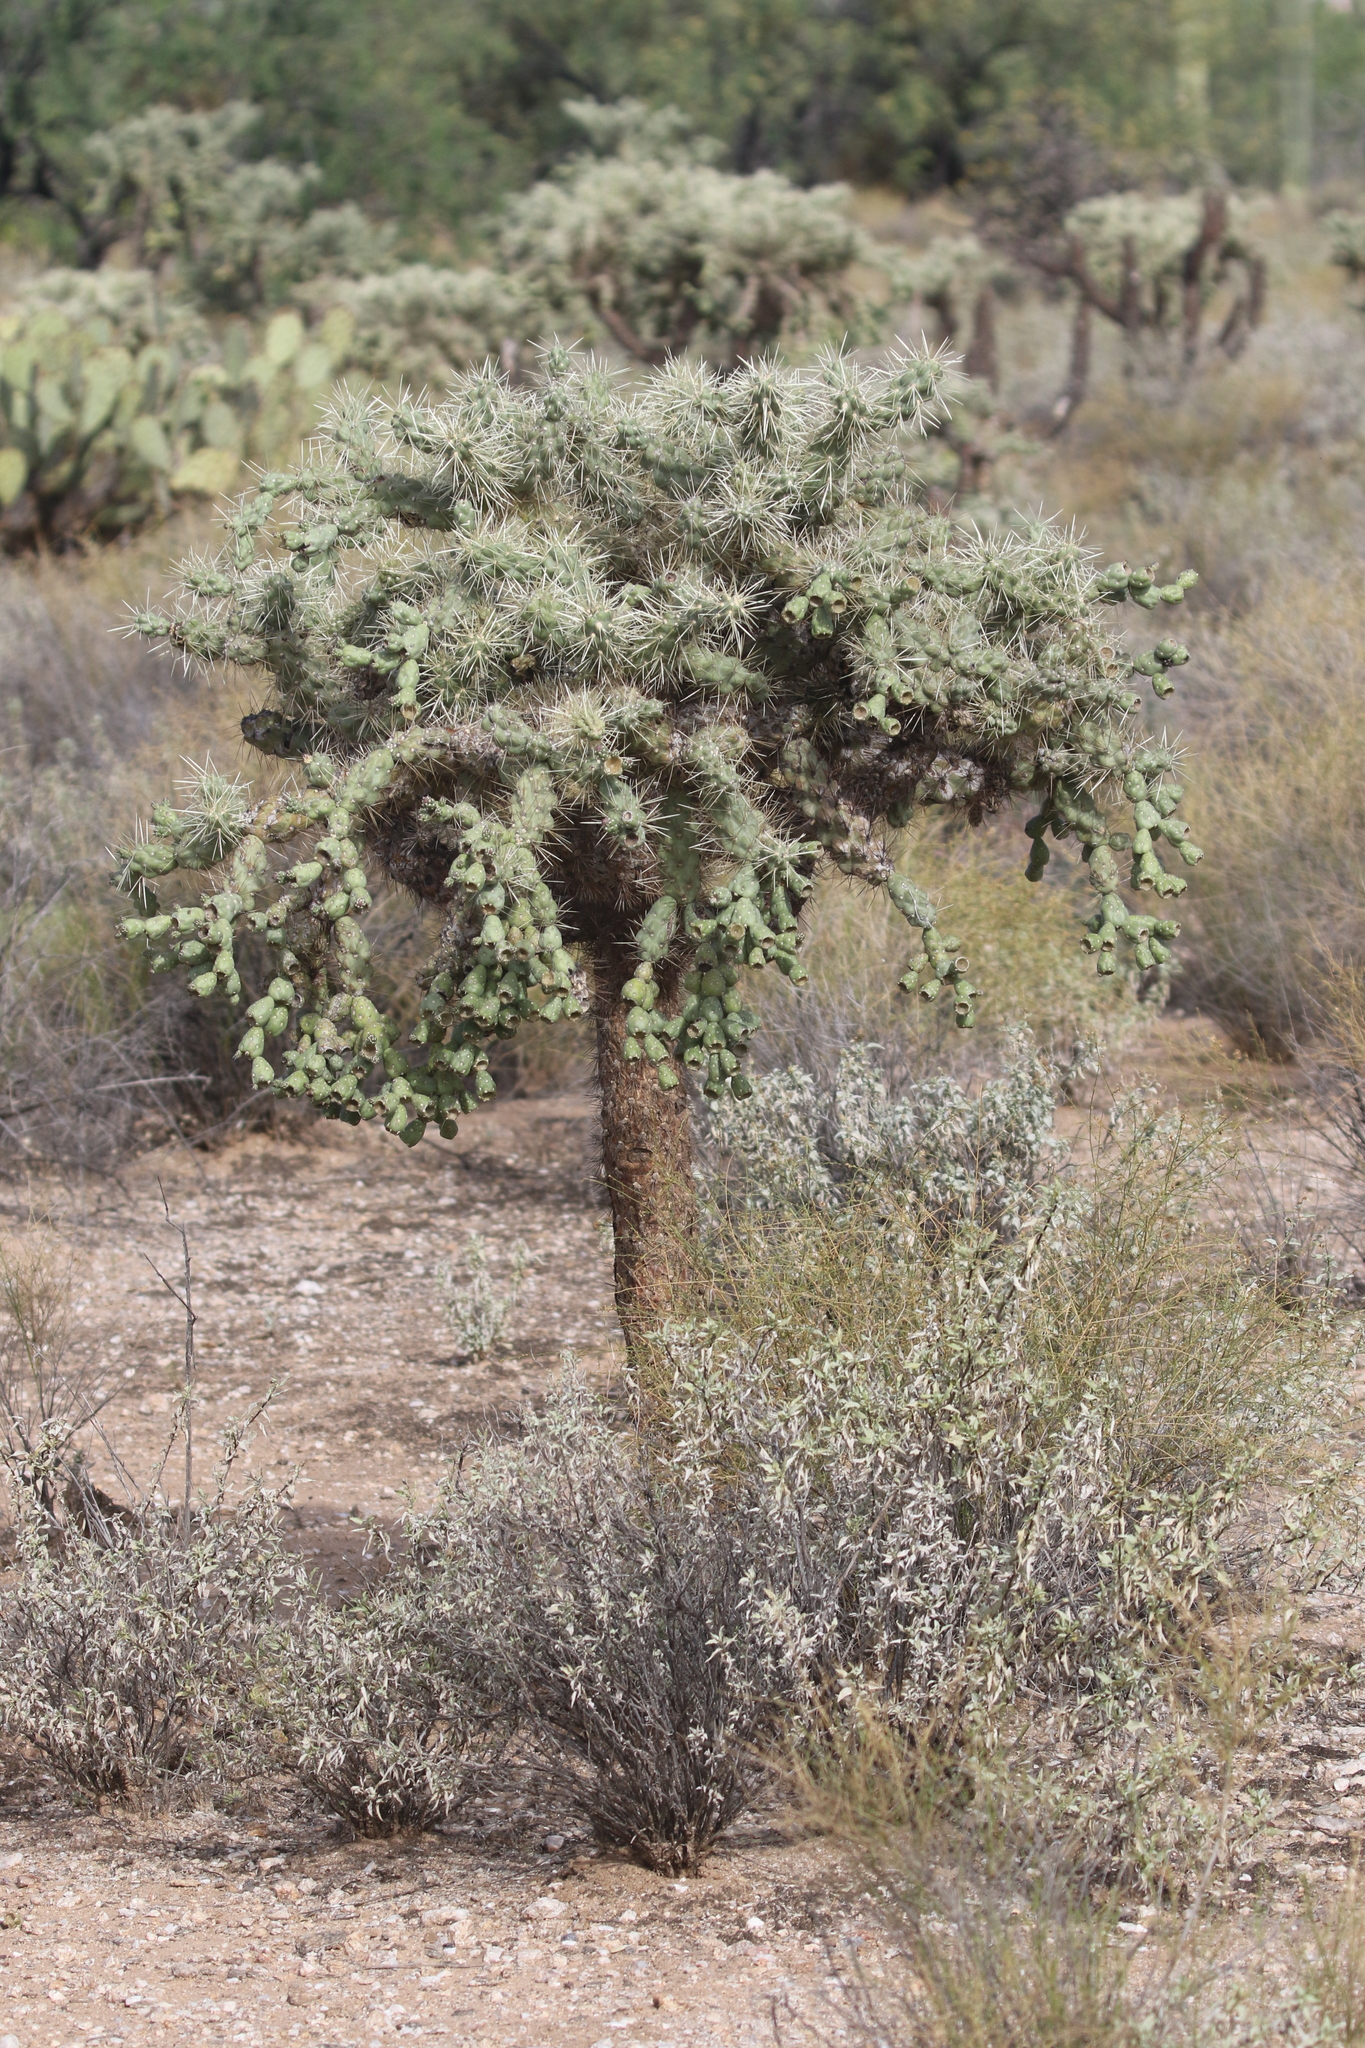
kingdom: Plantae
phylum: Tracheophyta
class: Magnoliopsida
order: Caryophyllales
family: Cactaceae
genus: Cylindropuntia
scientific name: Cylindropuntia fulgida
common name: Jumping cholla
